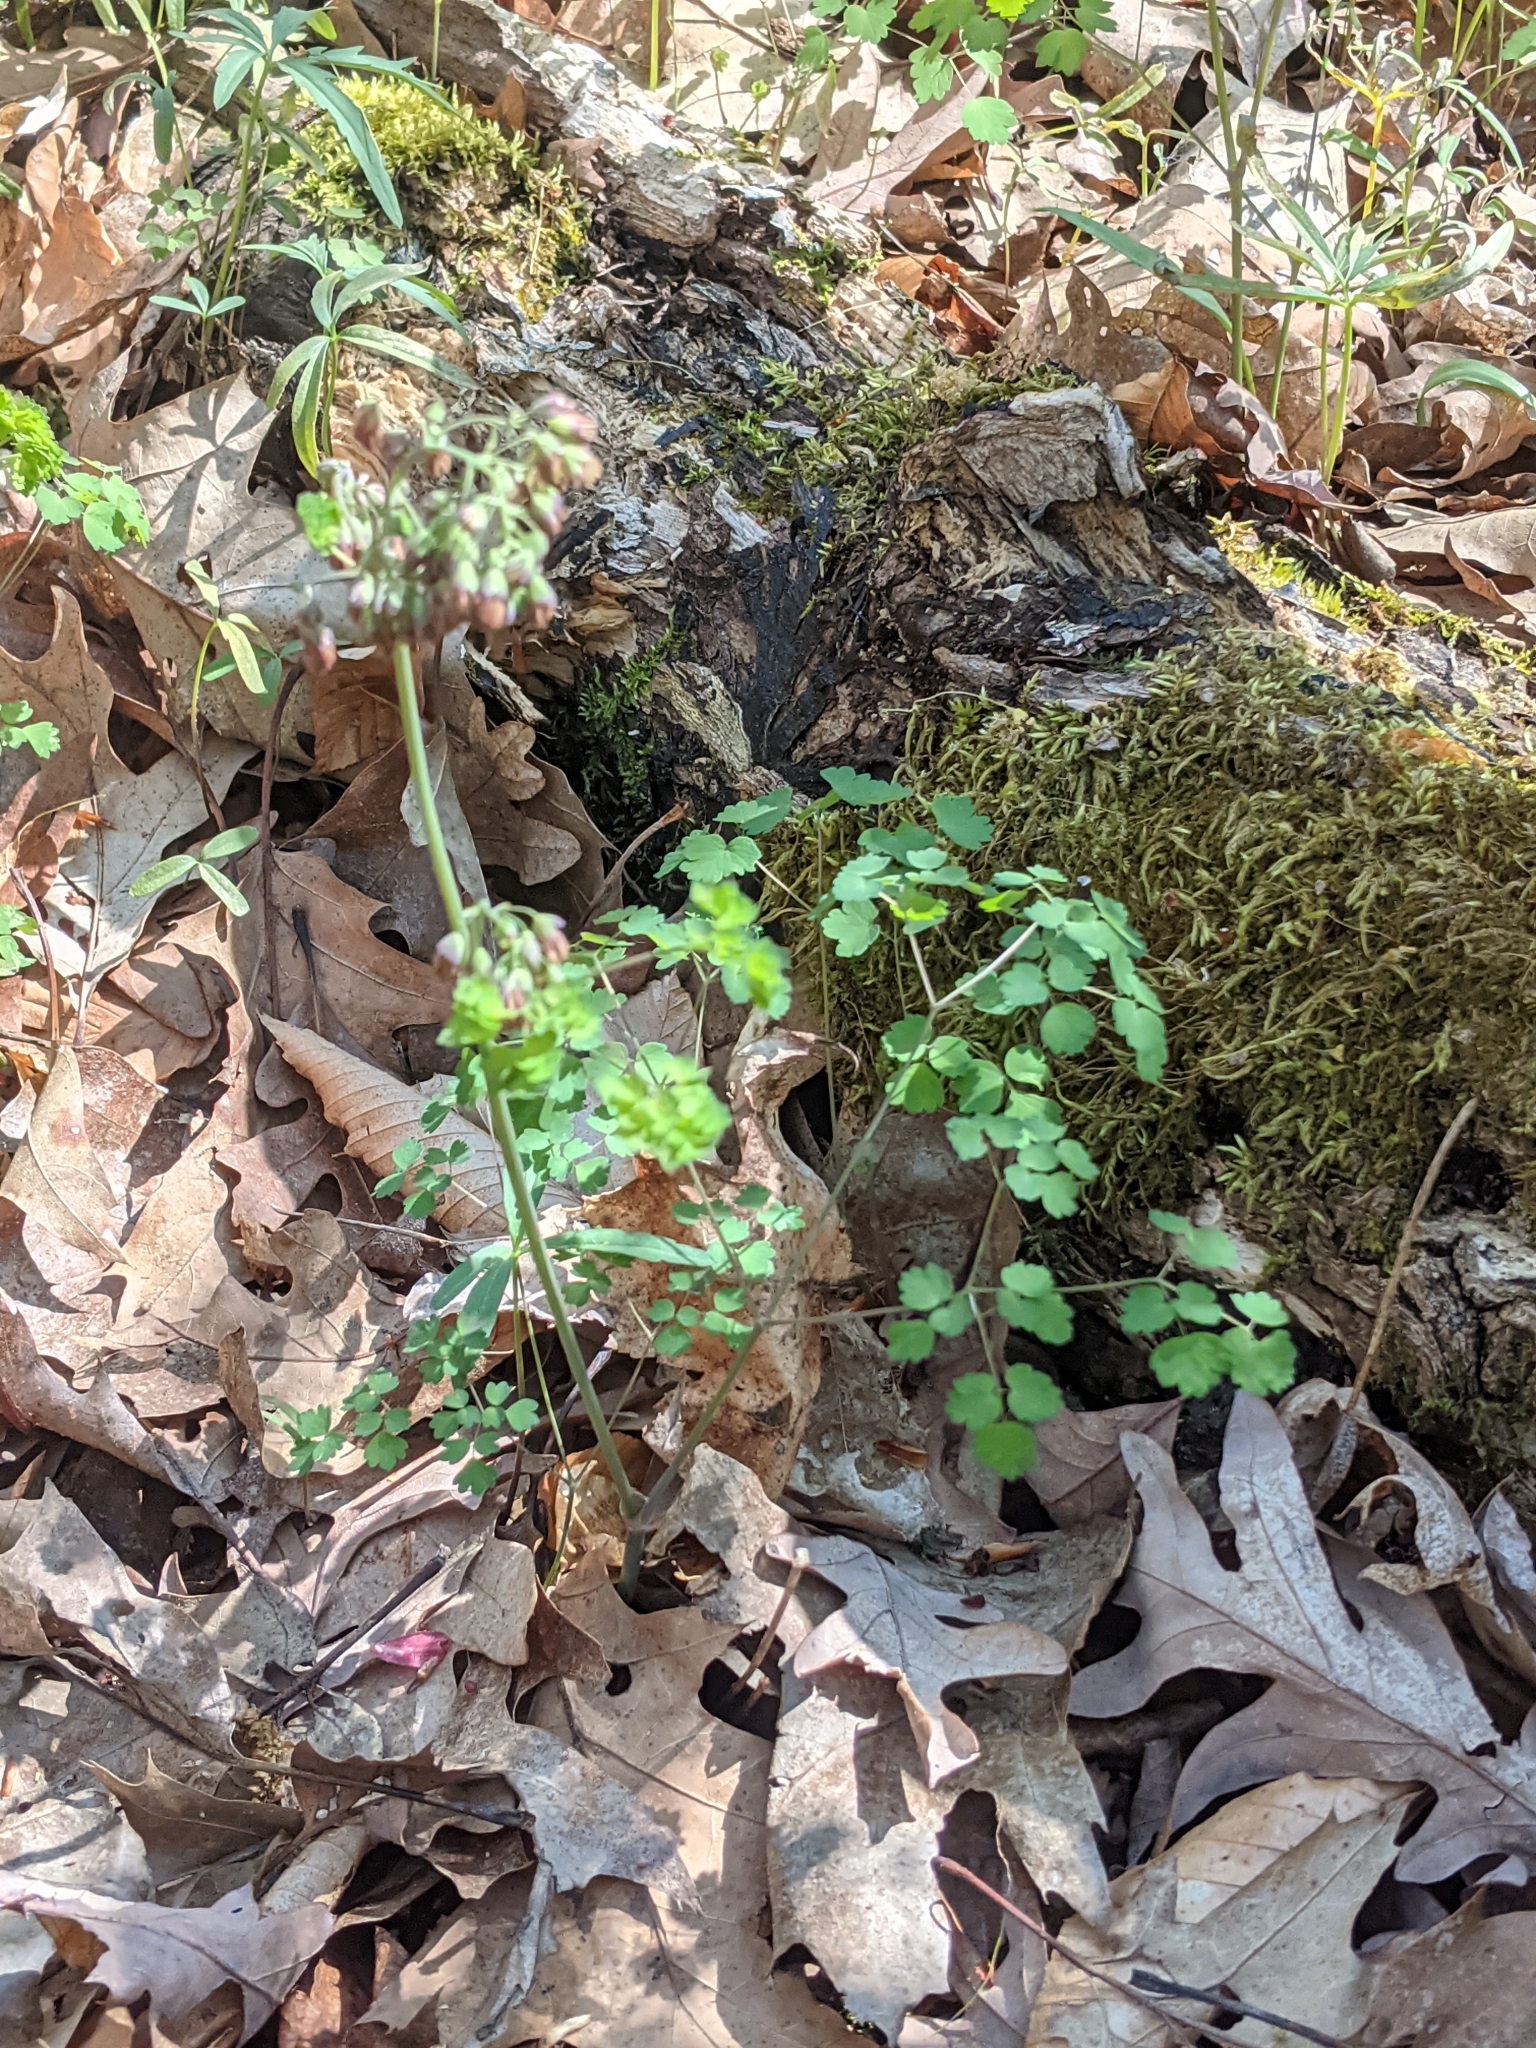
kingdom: Plantae
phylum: Tracheophyta
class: Magnoliopsida
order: Ranunculales
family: Ranunculaceae
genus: Thalictrum
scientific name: Thalictrum dioicum
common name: Early meadow-rue
